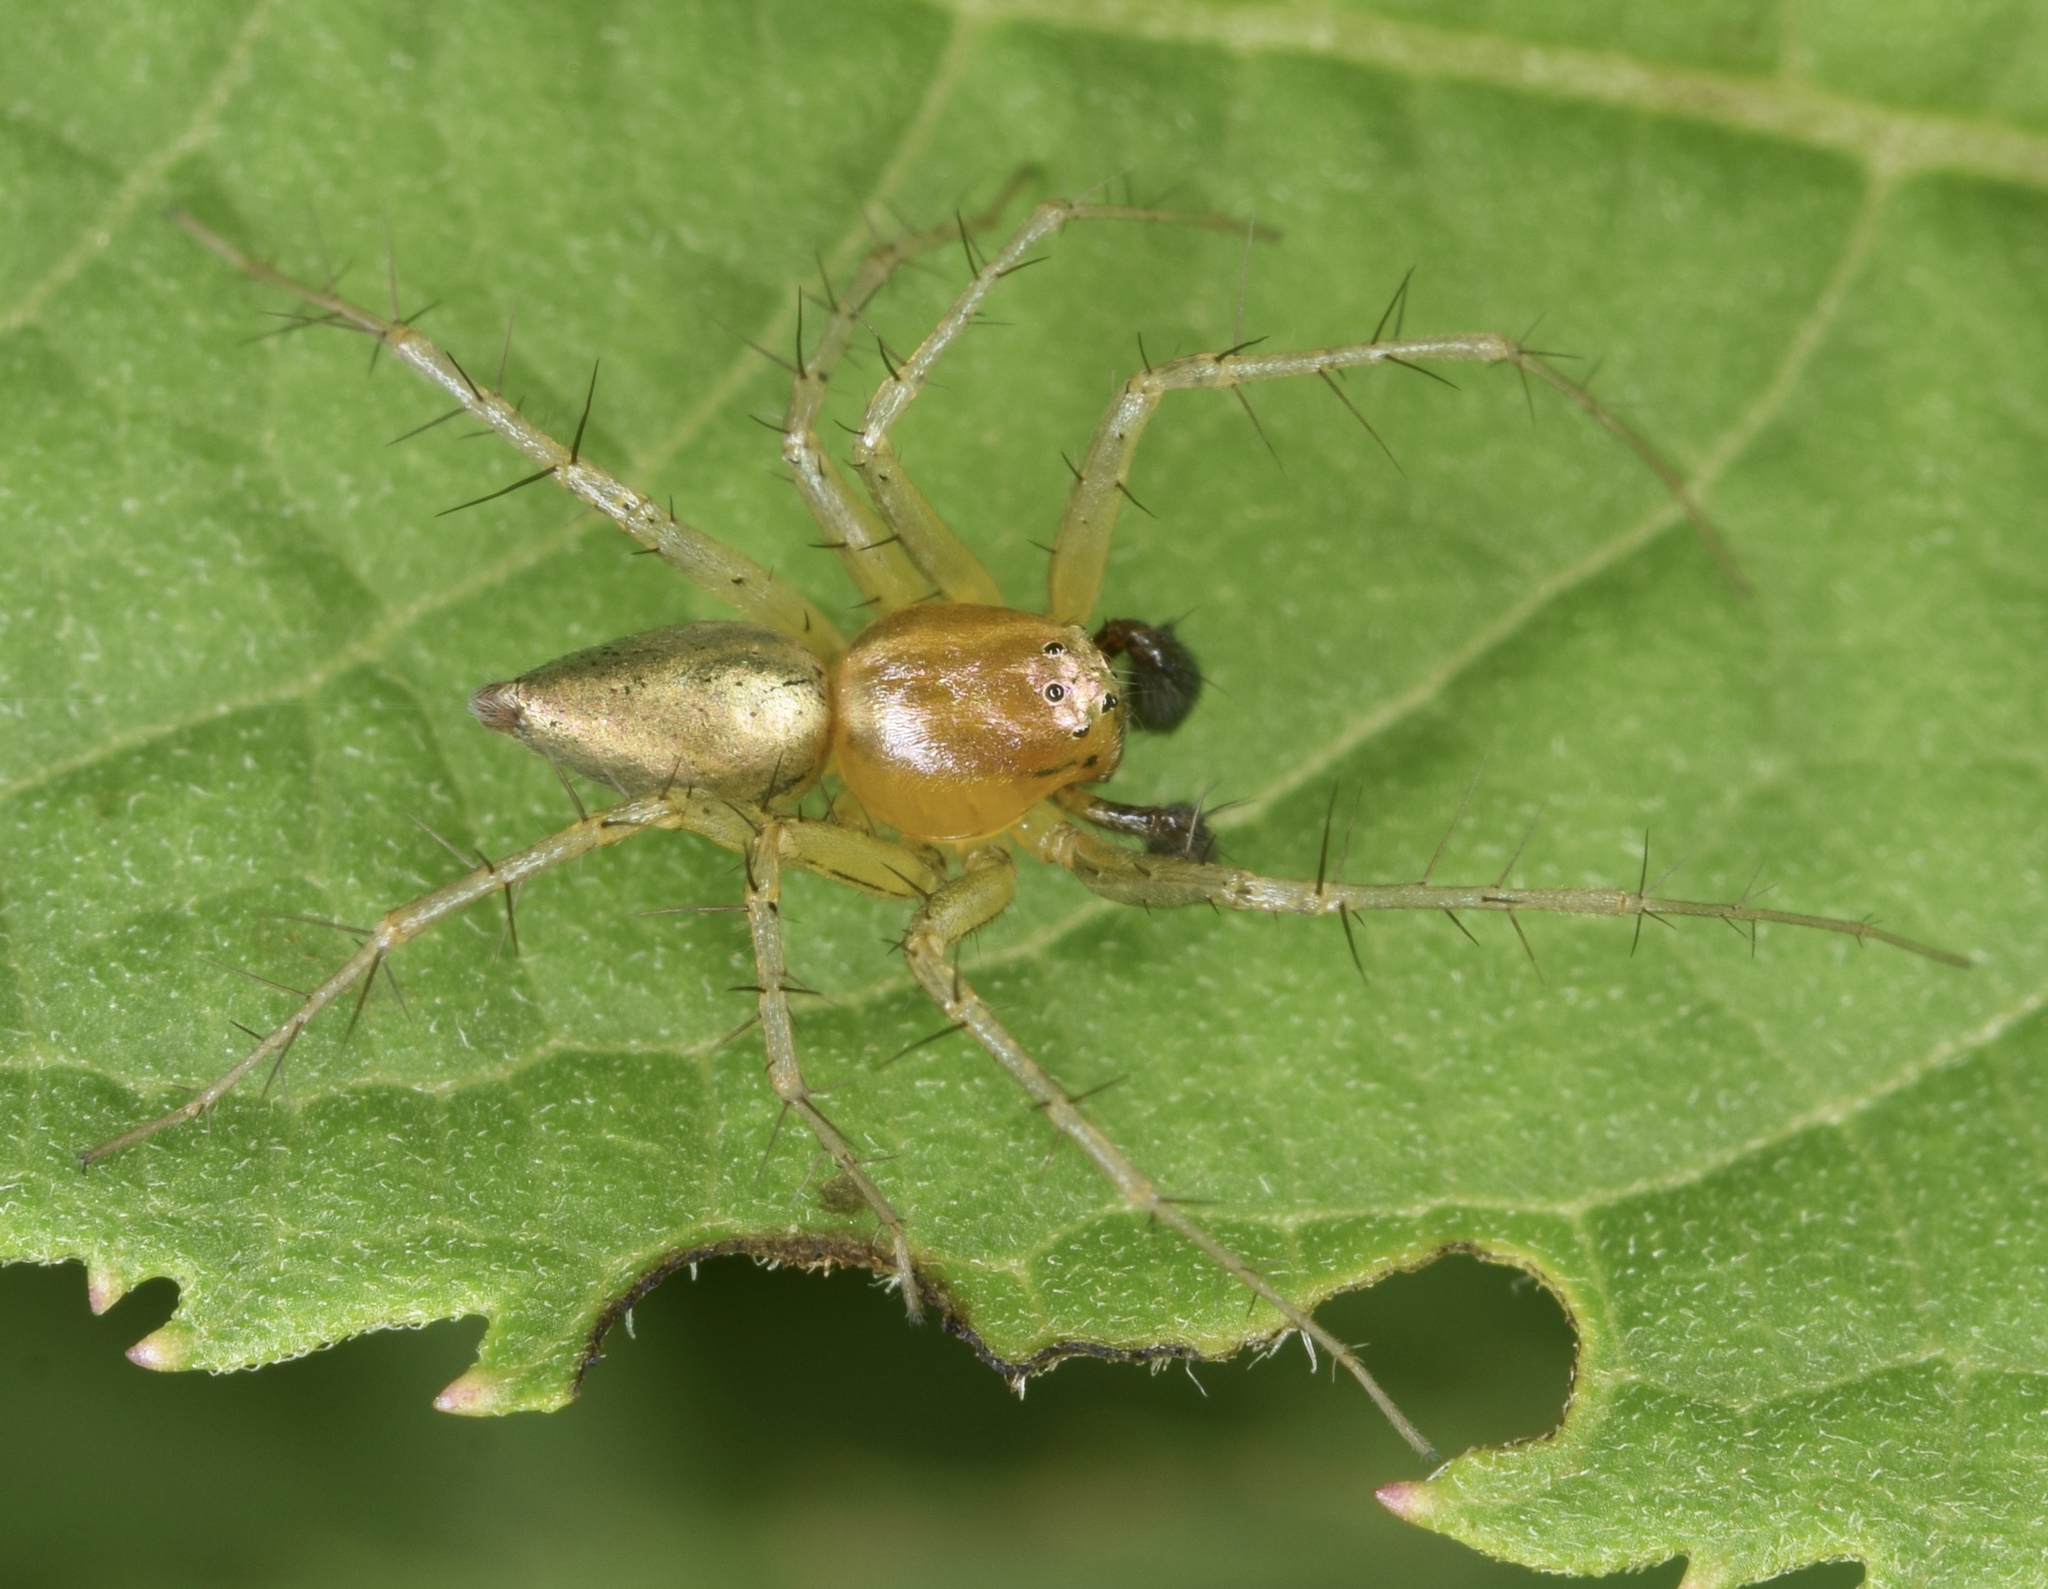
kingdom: Animalia
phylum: Arthropoda
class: Arachnida
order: Araneae
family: Oxyopidae
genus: Oxyopes
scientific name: Oxyopes salticus
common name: Lynx spiders
